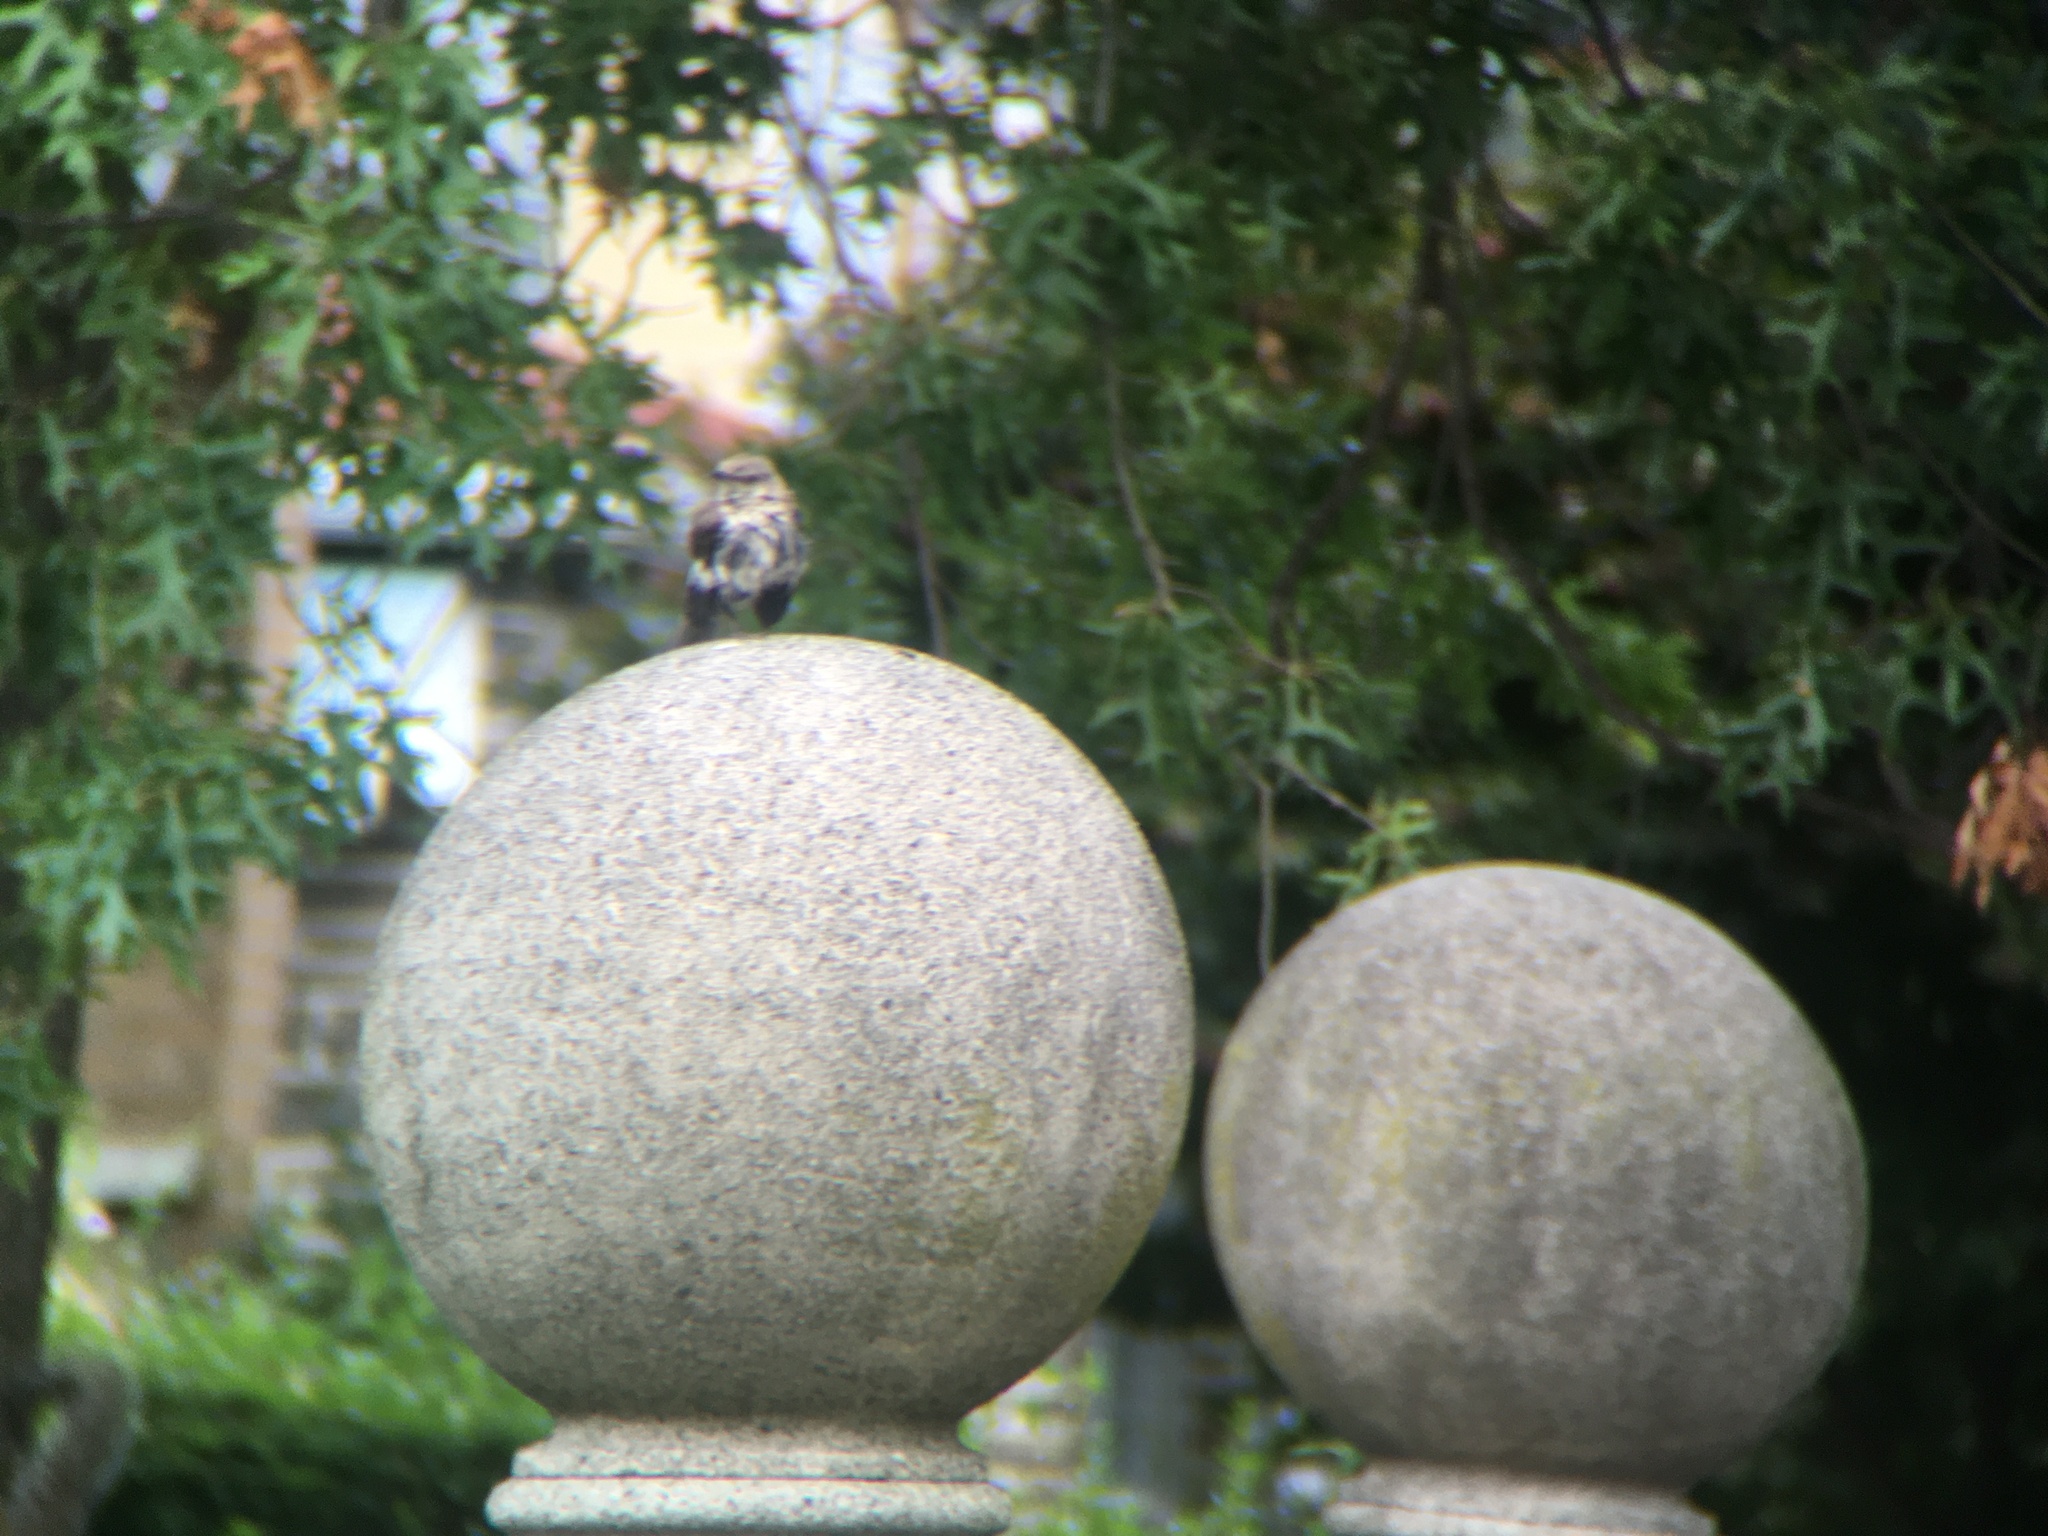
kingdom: Animalia
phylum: Chordata
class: Aves
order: Passeriformes
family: Mimidae
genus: Mimus
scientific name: Mimus polyglottos
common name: Northern mockingbird
